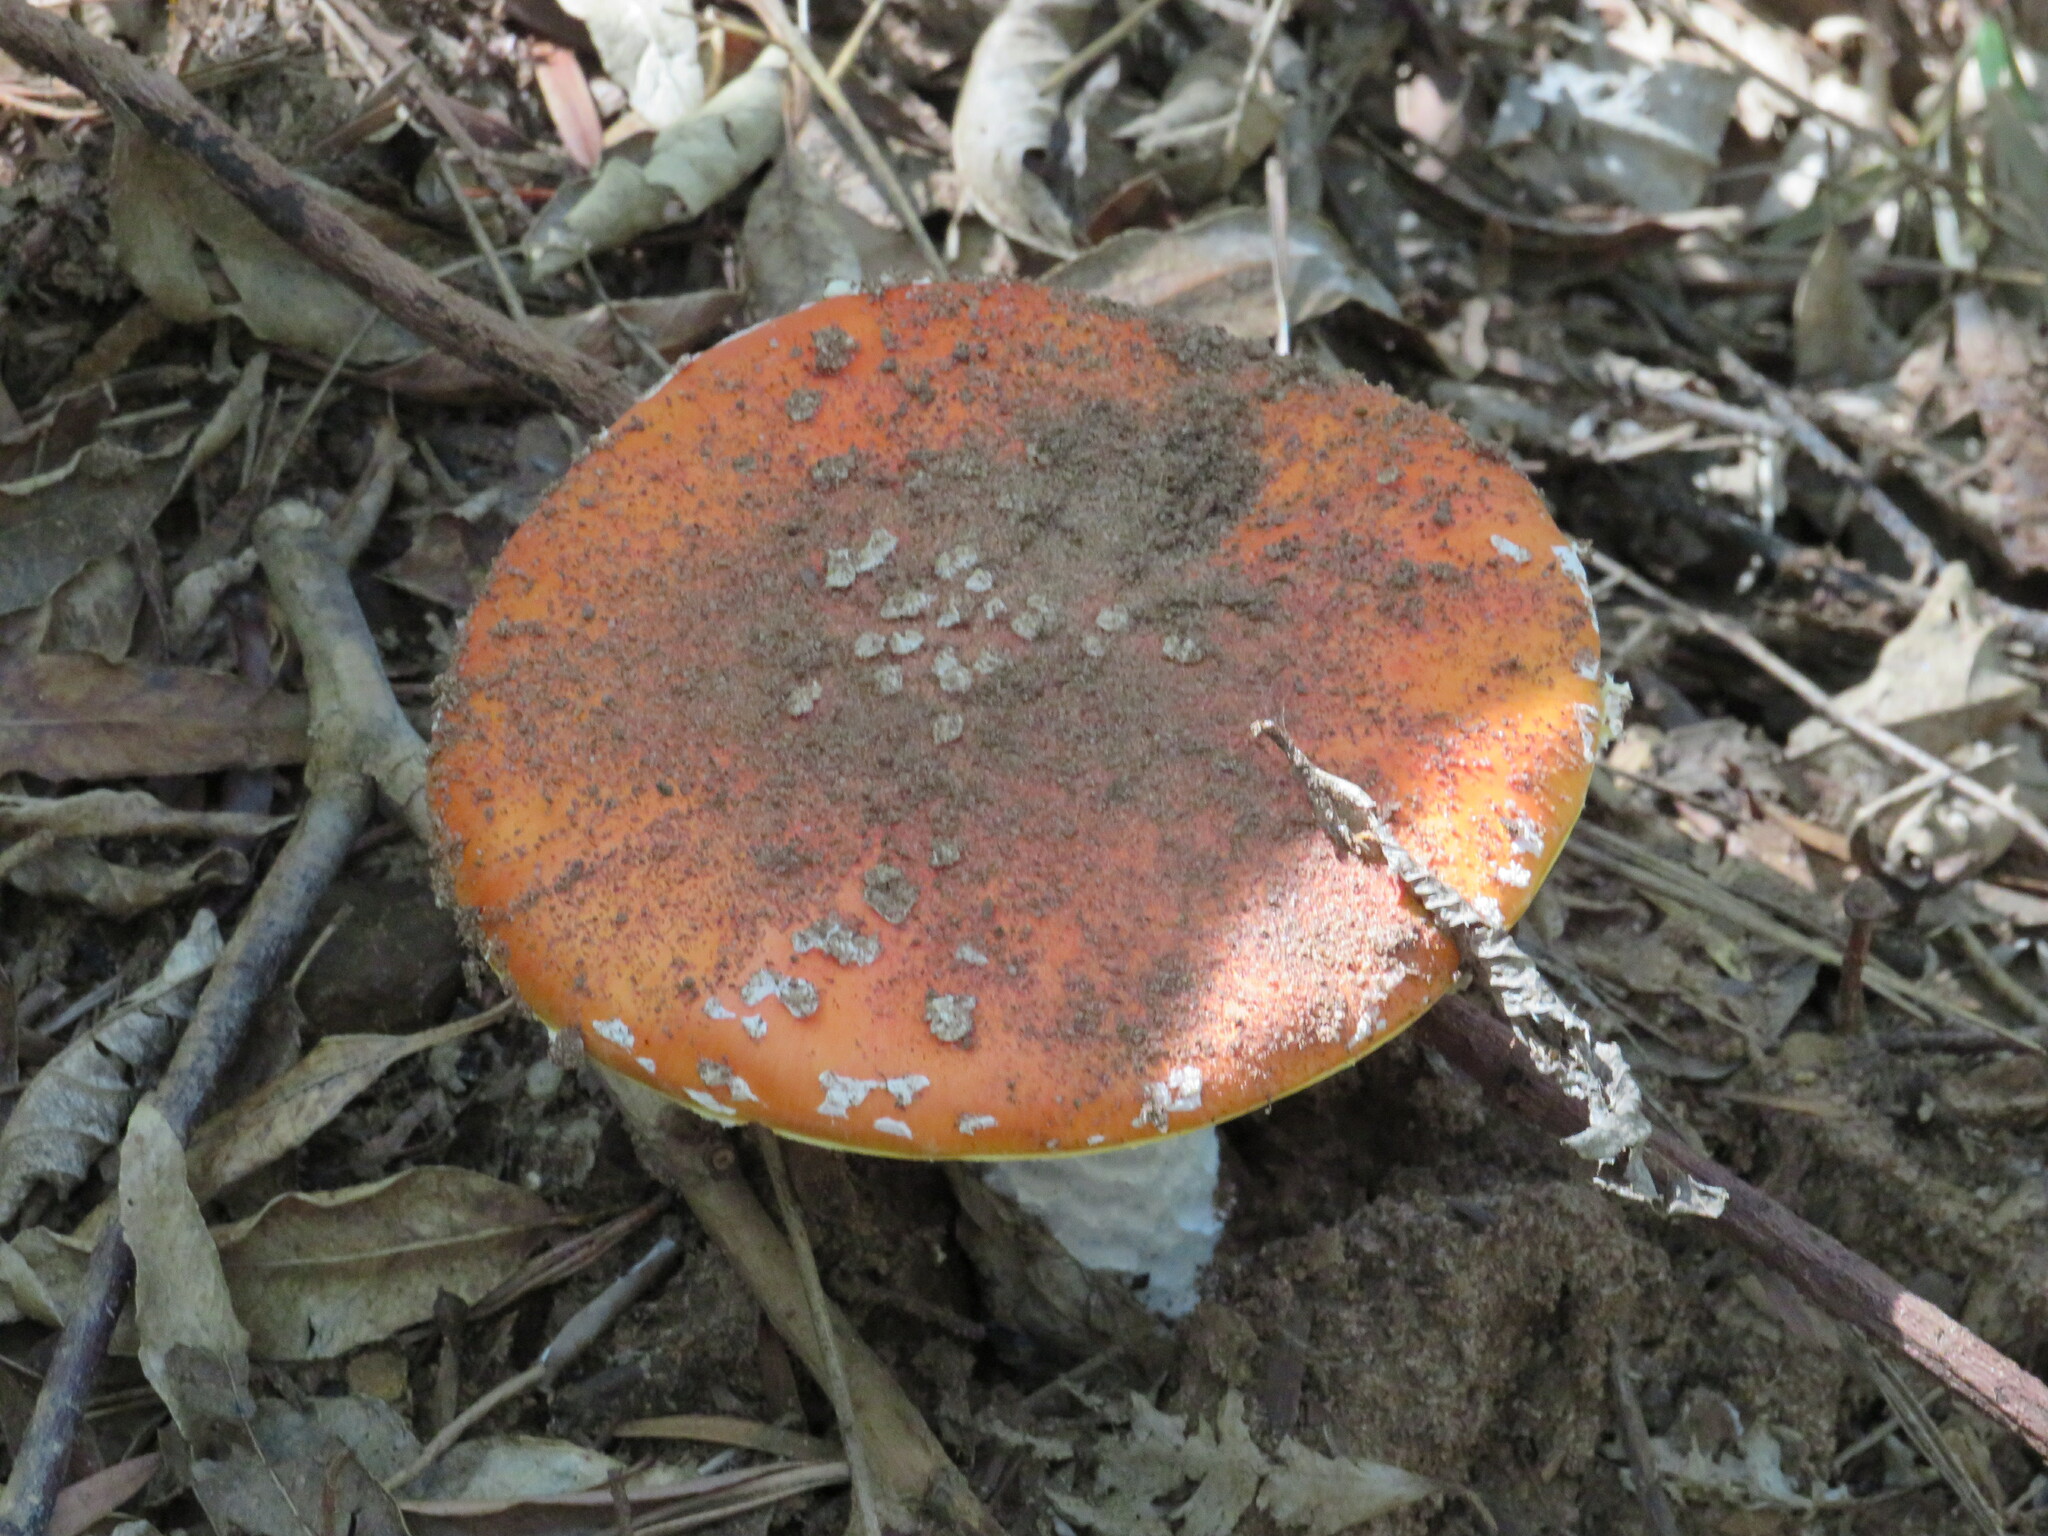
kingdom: Fungi
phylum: Basidiomycota
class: Agaricomycetes
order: Agaricales
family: Amanitaceae
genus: Amanita
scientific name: Amanita muscaria
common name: Fly agaric
